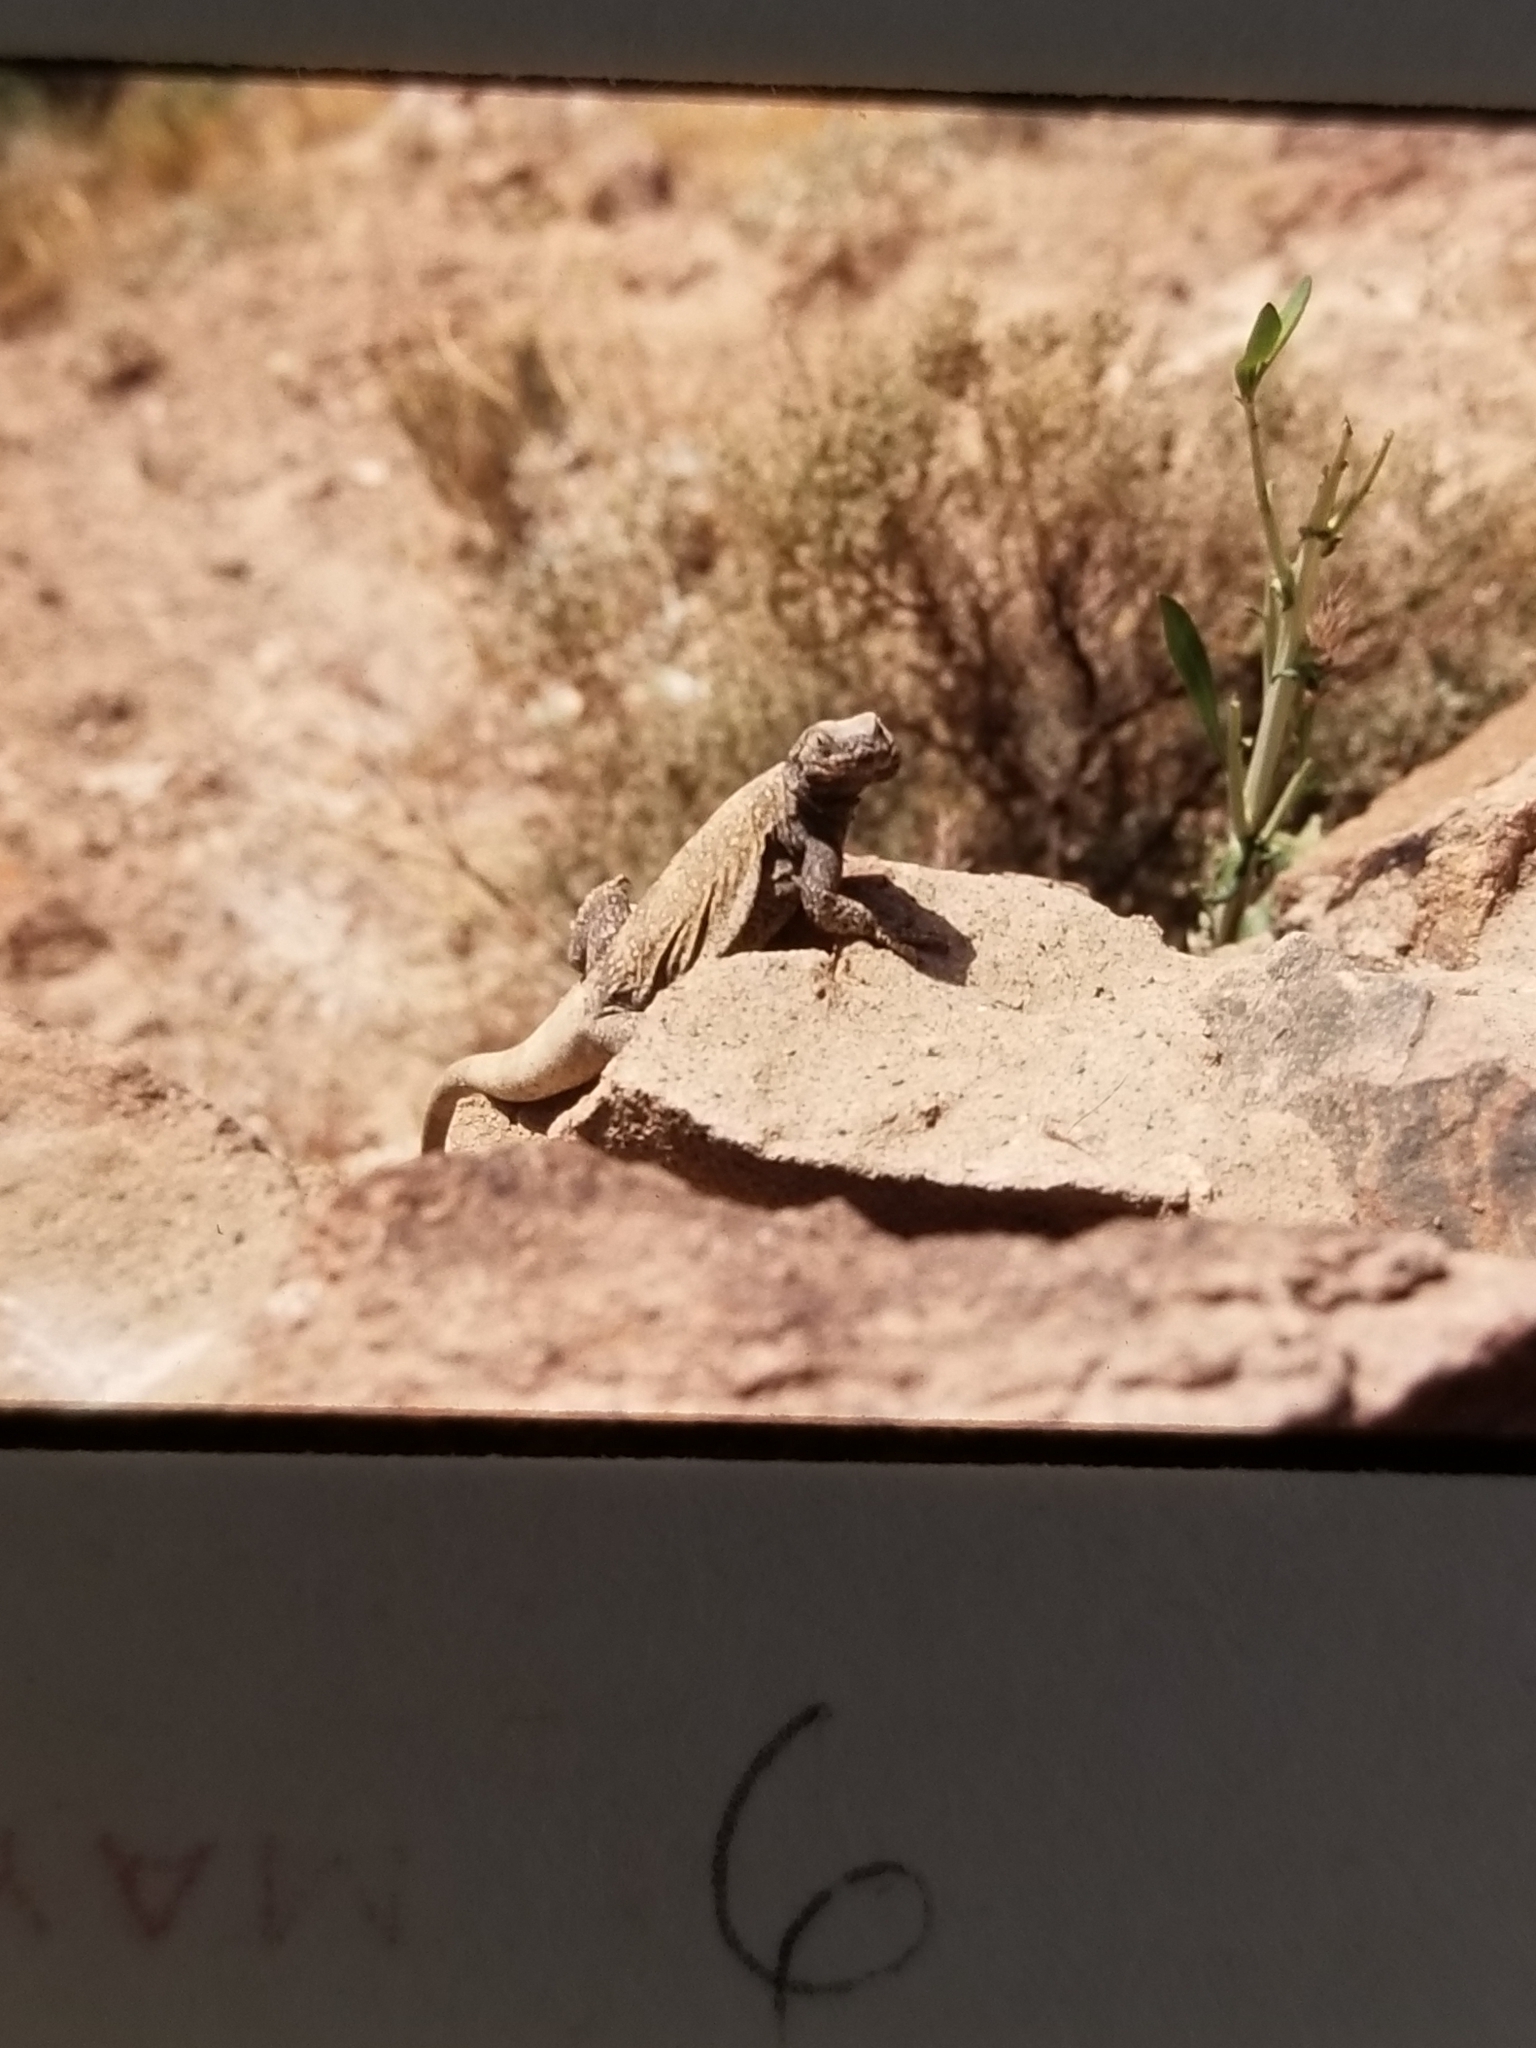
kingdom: Animalia
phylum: Chordata
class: Squamata
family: Iguanidae
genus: Sauromalus
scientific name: Sauromalus ater
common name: Northern chuckwalla
